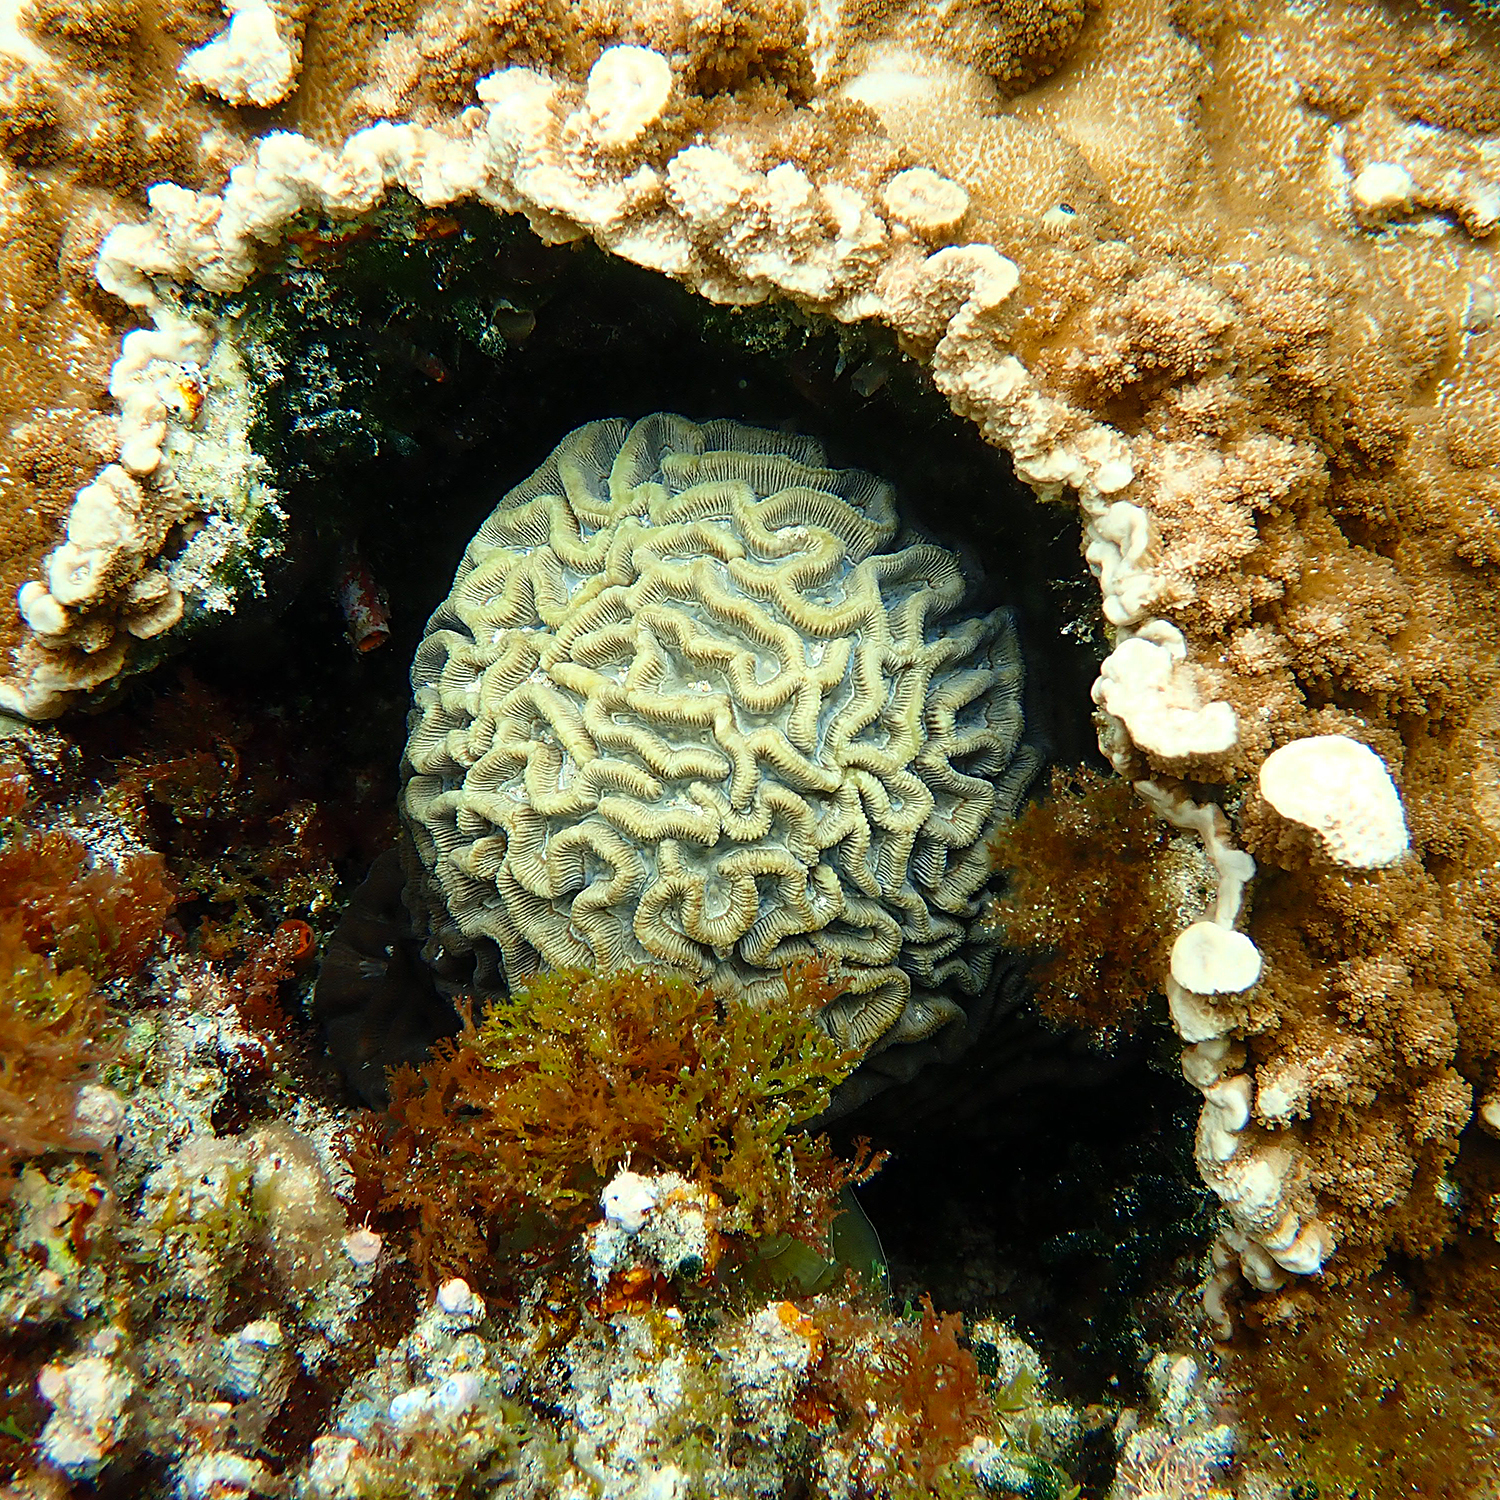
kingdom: Animalia
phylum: Cnidaria
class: Anthozoa
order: Scleractinia
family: Merulinidae
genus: Paragoniastrea
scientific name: Paragoniastrea australensis
